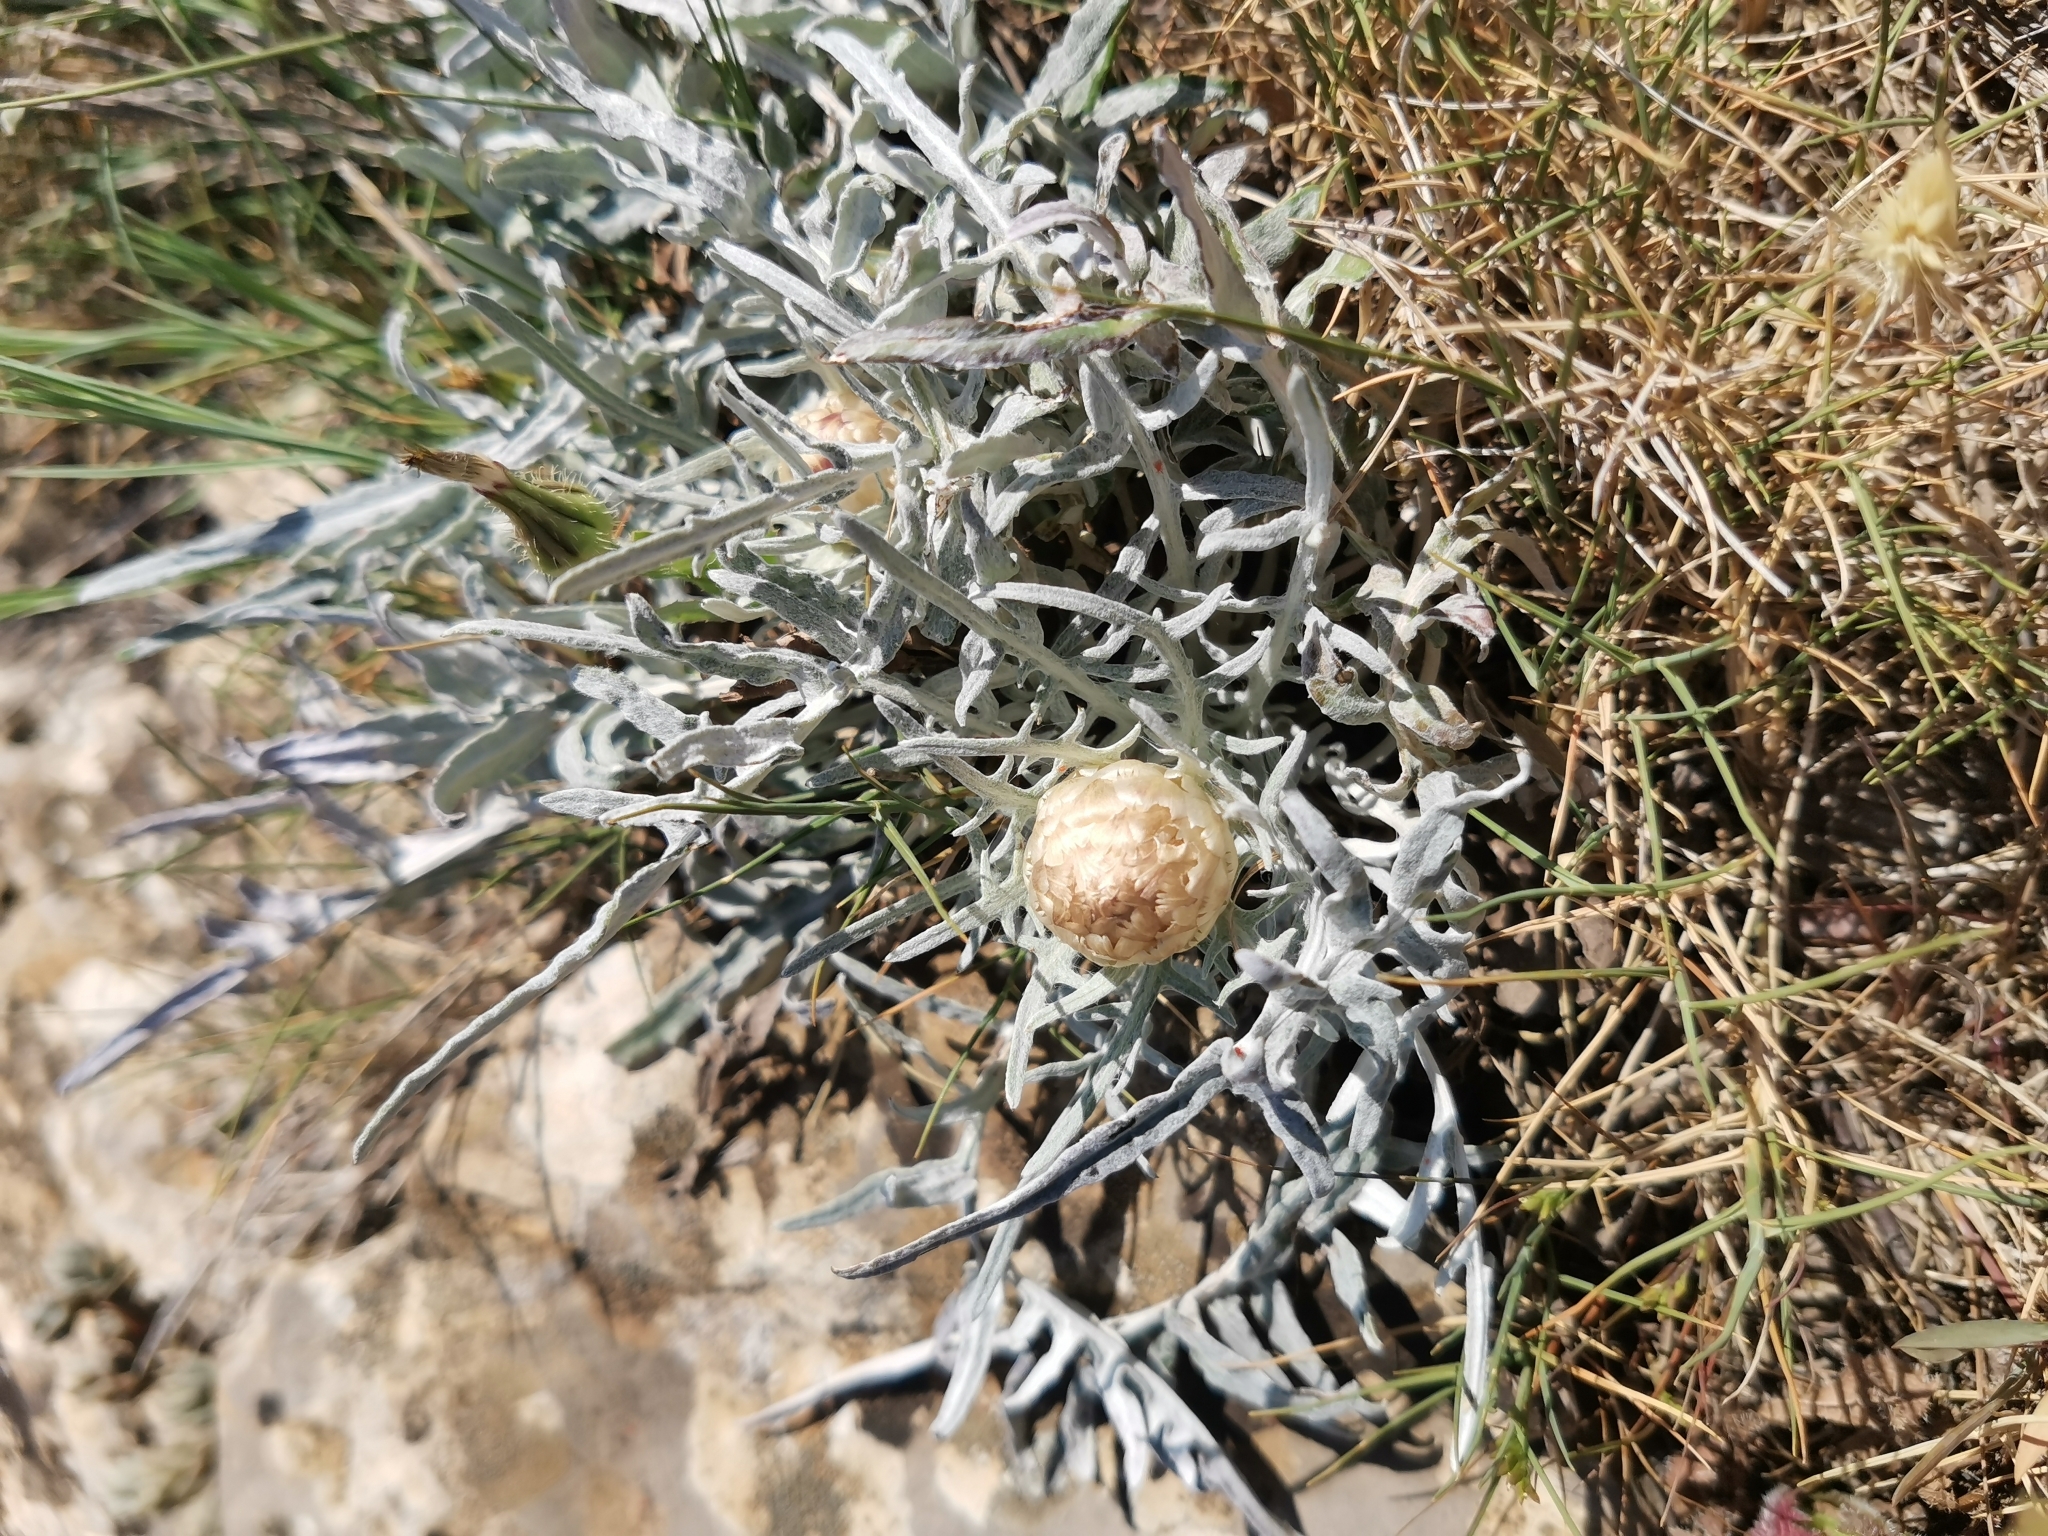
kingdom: Plantae
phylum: Tracheophyta
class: Magnoliopsida
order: Asterales
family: Asteraceae
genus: Leuzea
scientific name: Leuzea conifera
